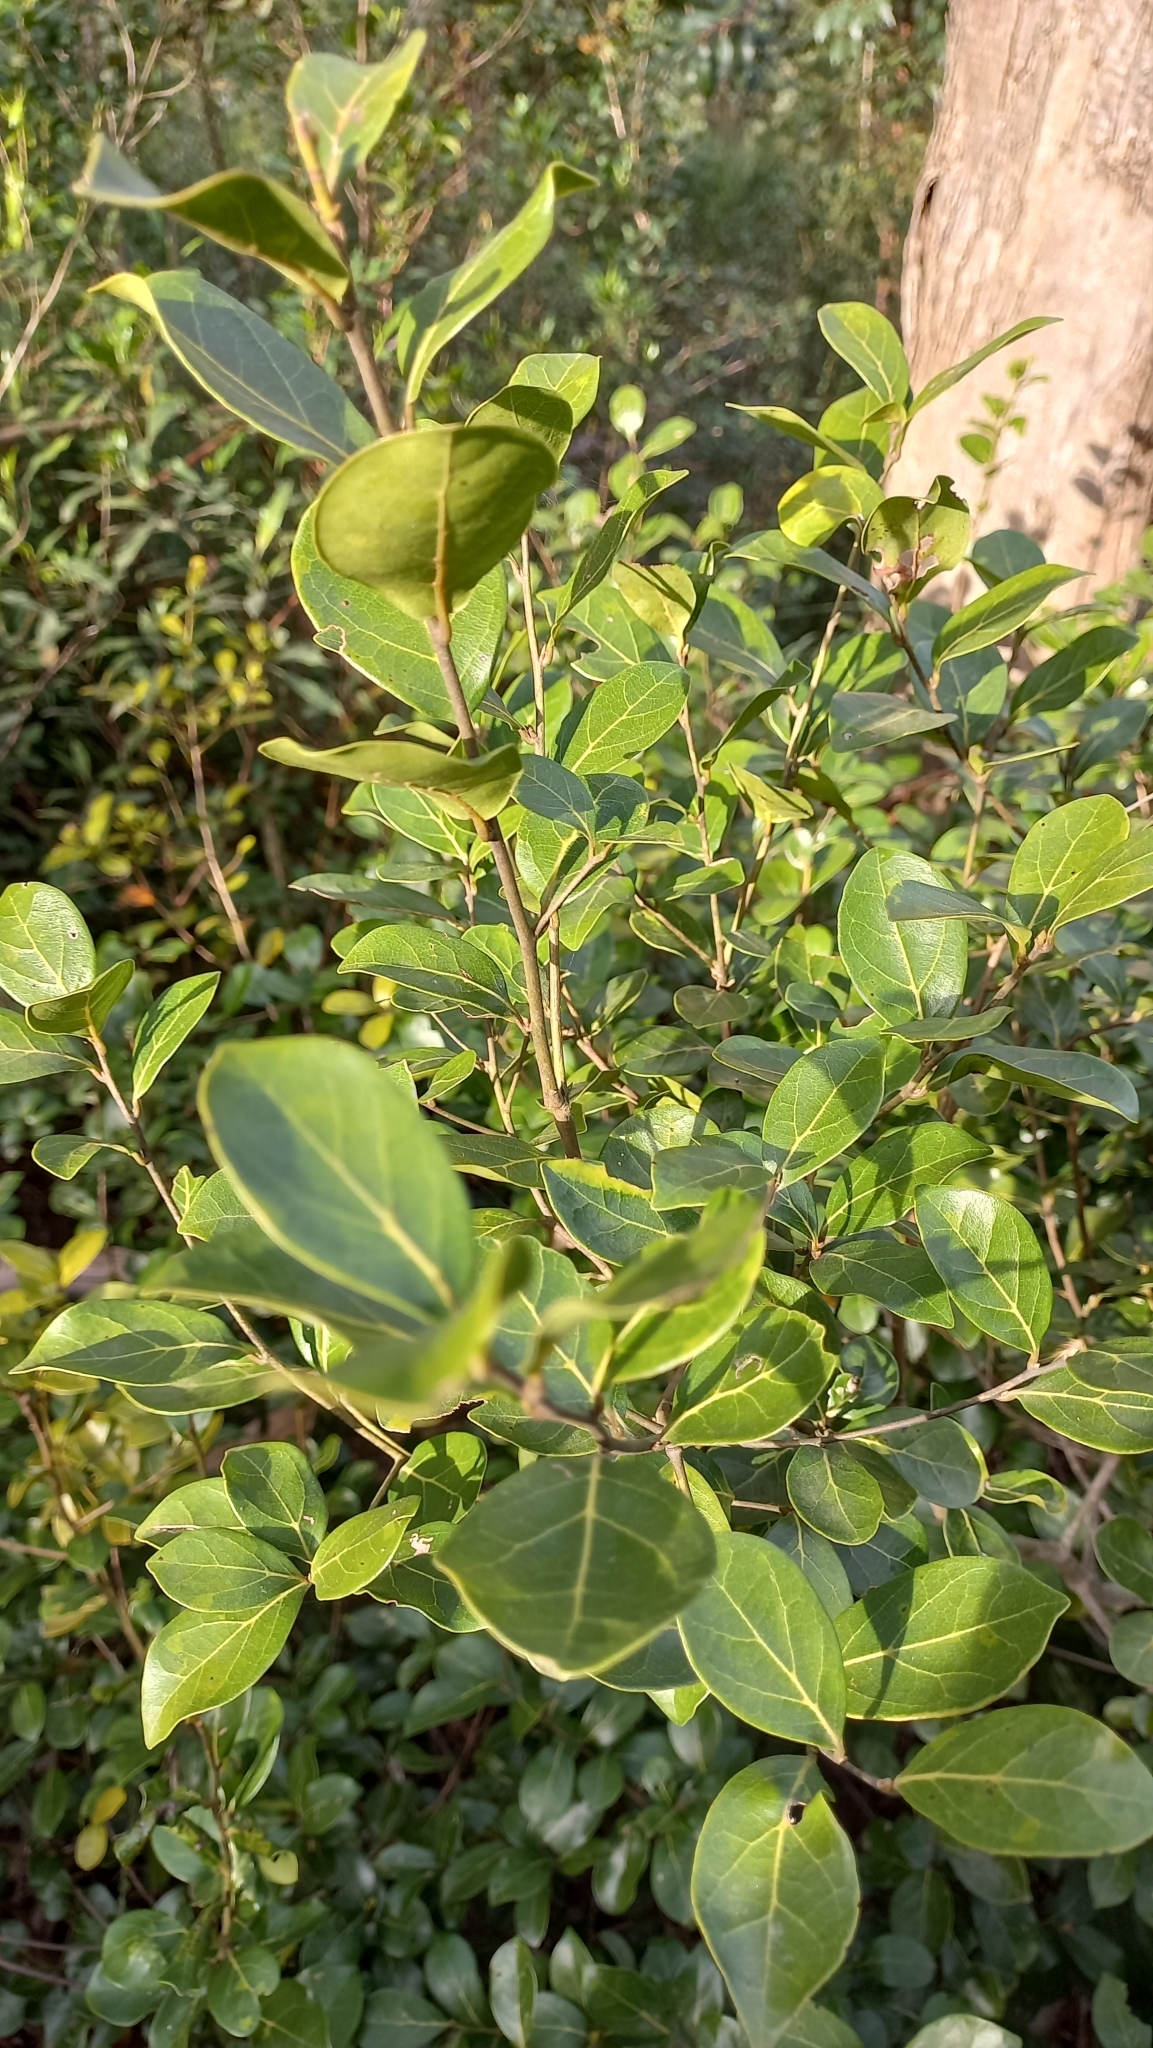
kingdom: Plantae
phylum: Tracheophyta
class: Magnoliopsida
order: Laurales
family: Lauraceae
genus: Mespilodaphne
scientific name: Mespilodaphne pulchella
